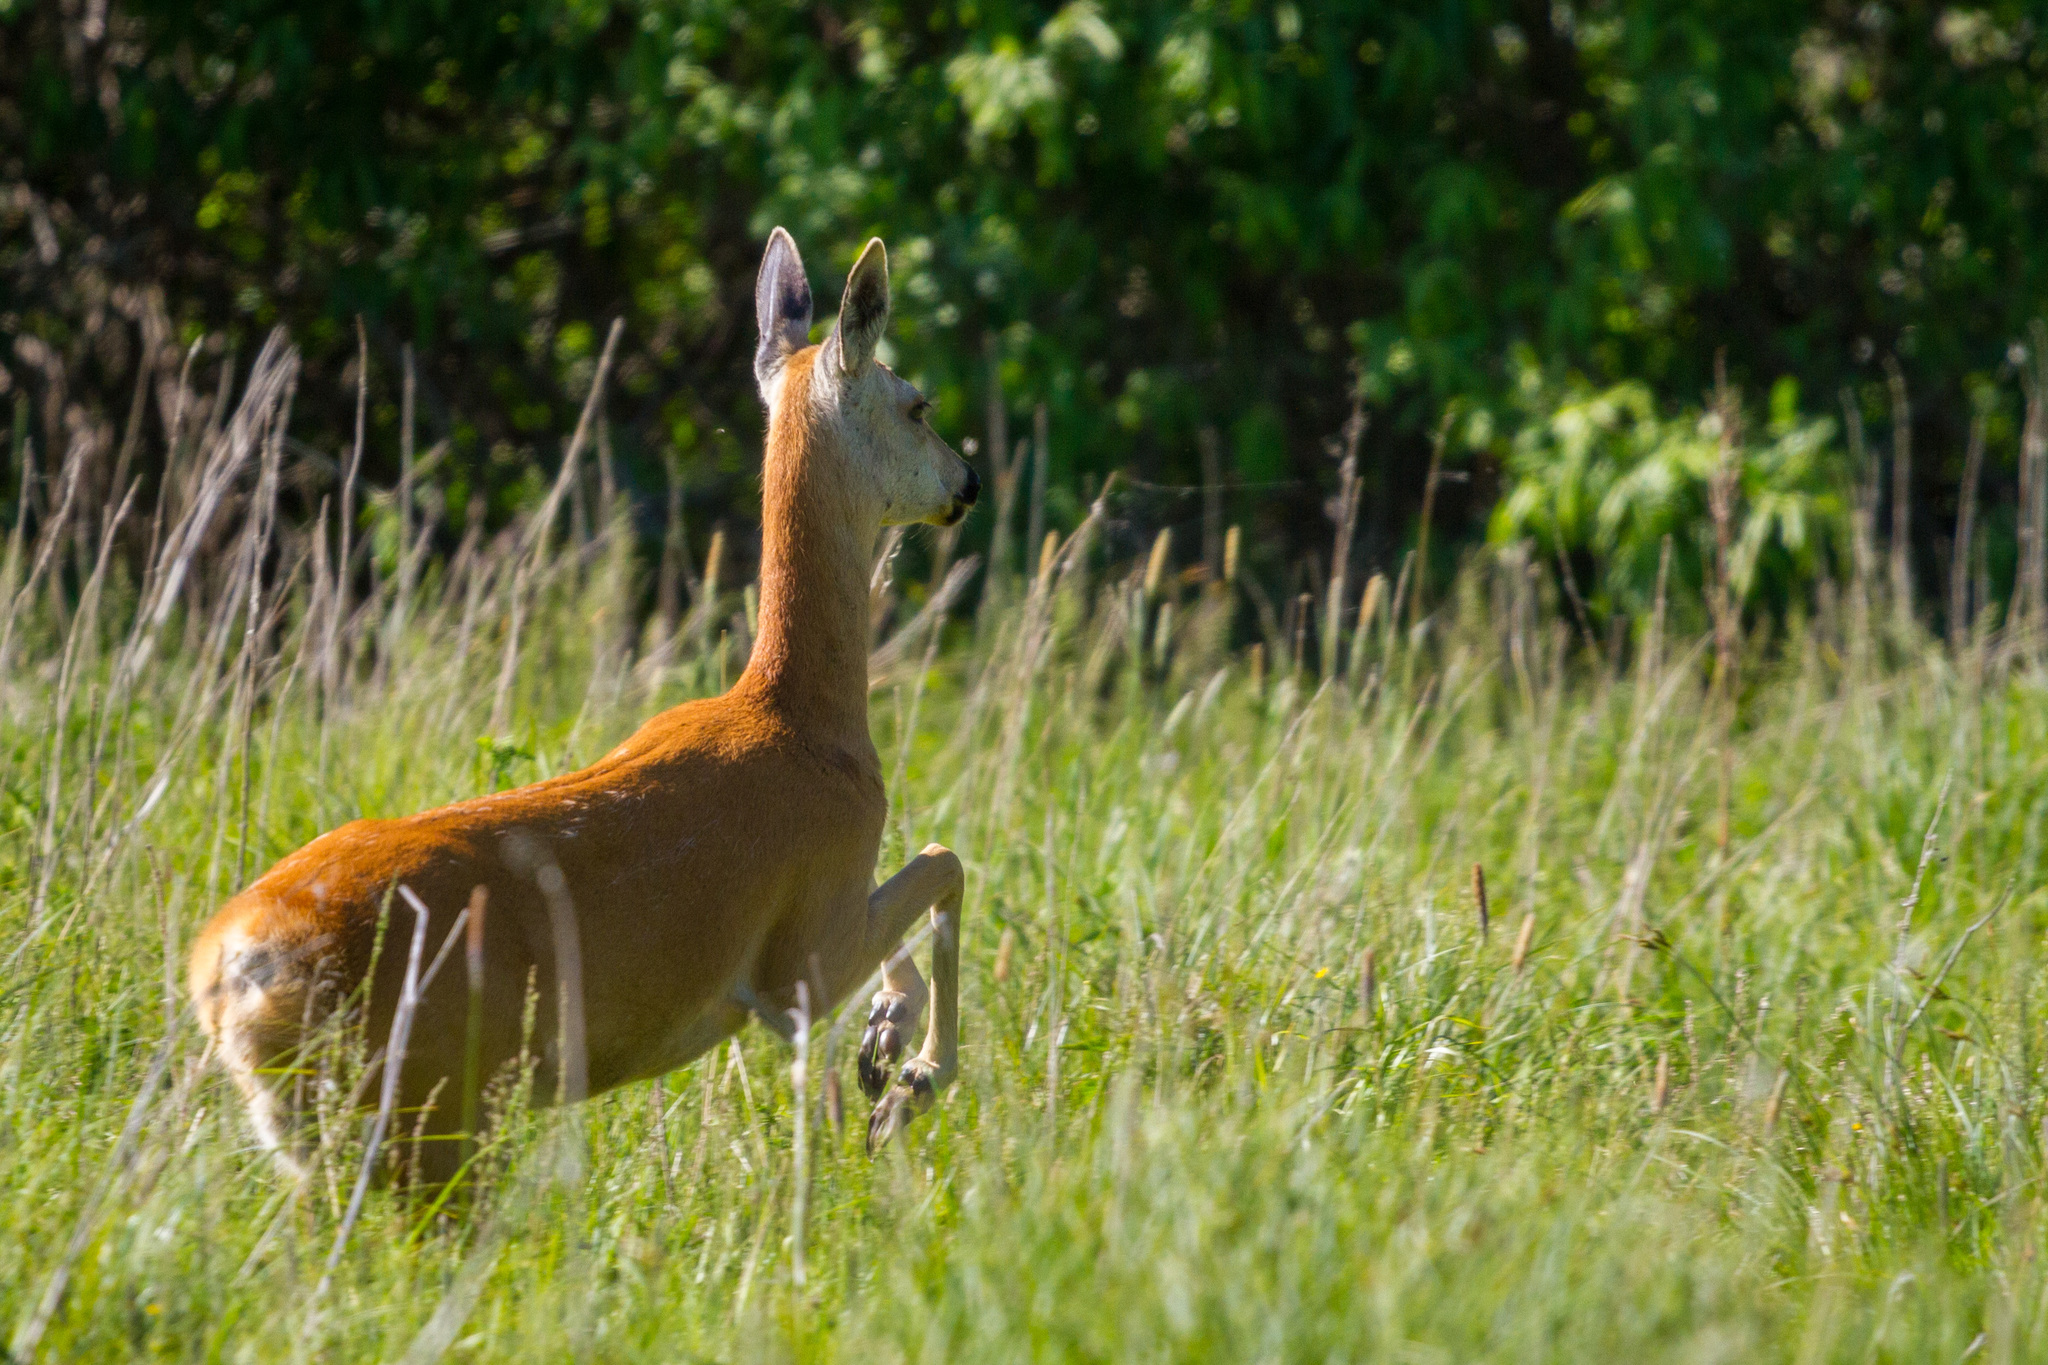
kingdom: Animalia
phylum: Chordata
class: Mammalia
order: Artiodactyla
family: Cervidae
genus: Capreolus
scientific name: Capreolus pygargus
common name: Siberian roe
